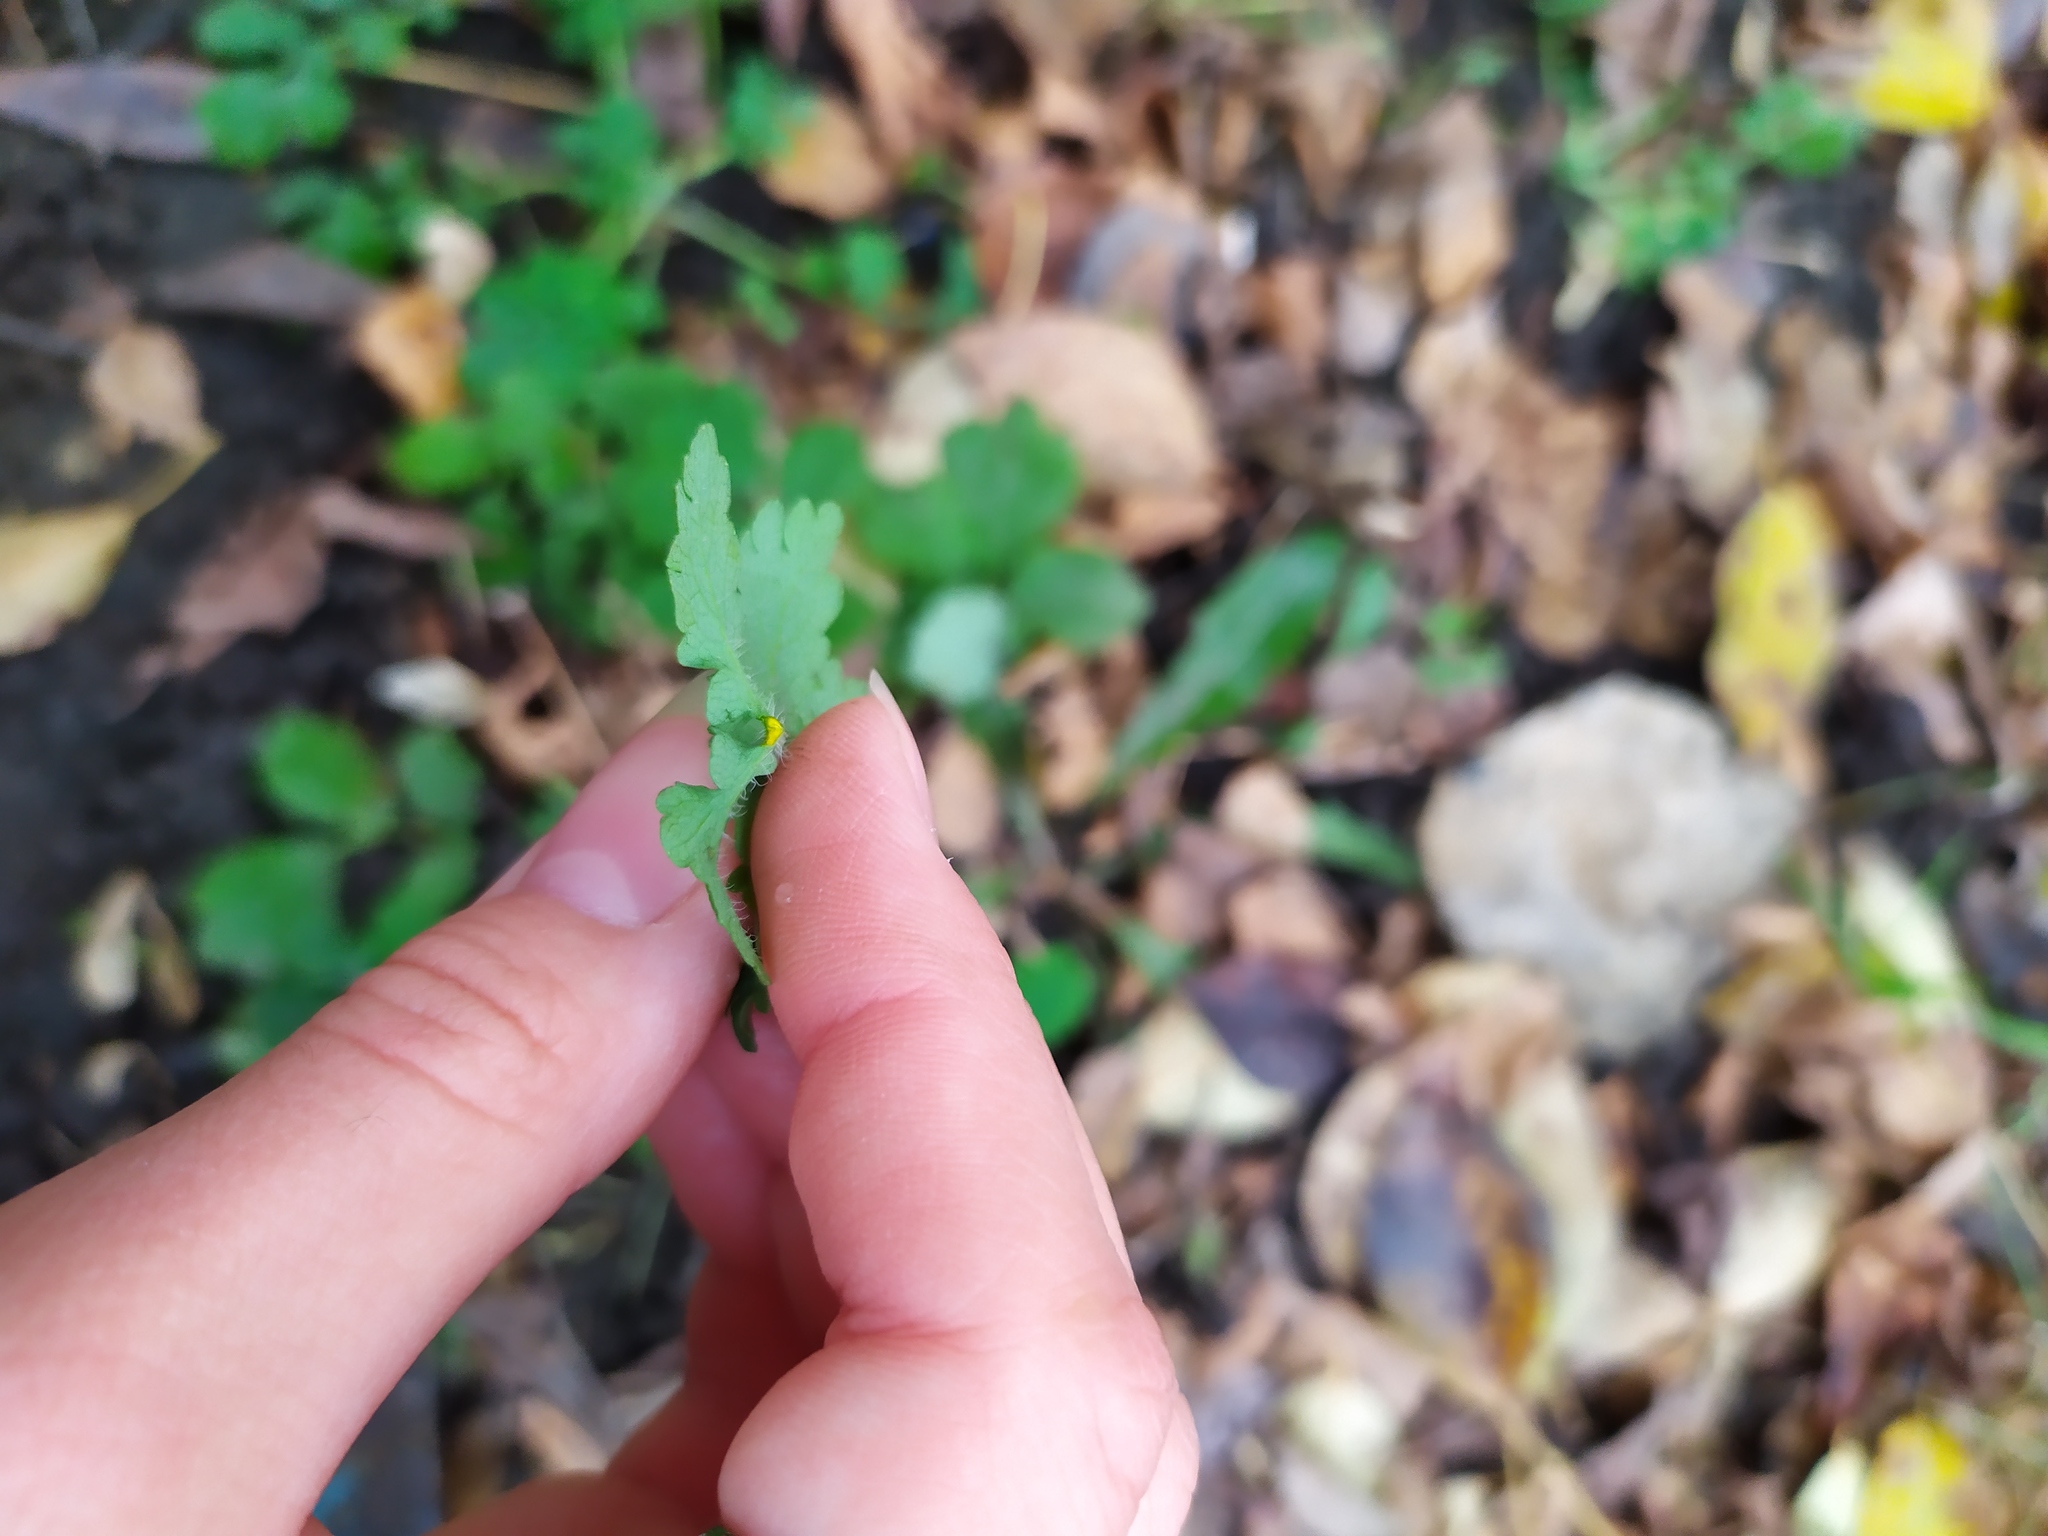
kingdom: Plantae
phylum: Tracheophyta
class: Magnoliopsida
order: Ranunculales
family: Papaveraceae
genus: Chelidonium
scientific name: Chelidonium majus
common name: Greater celandine
